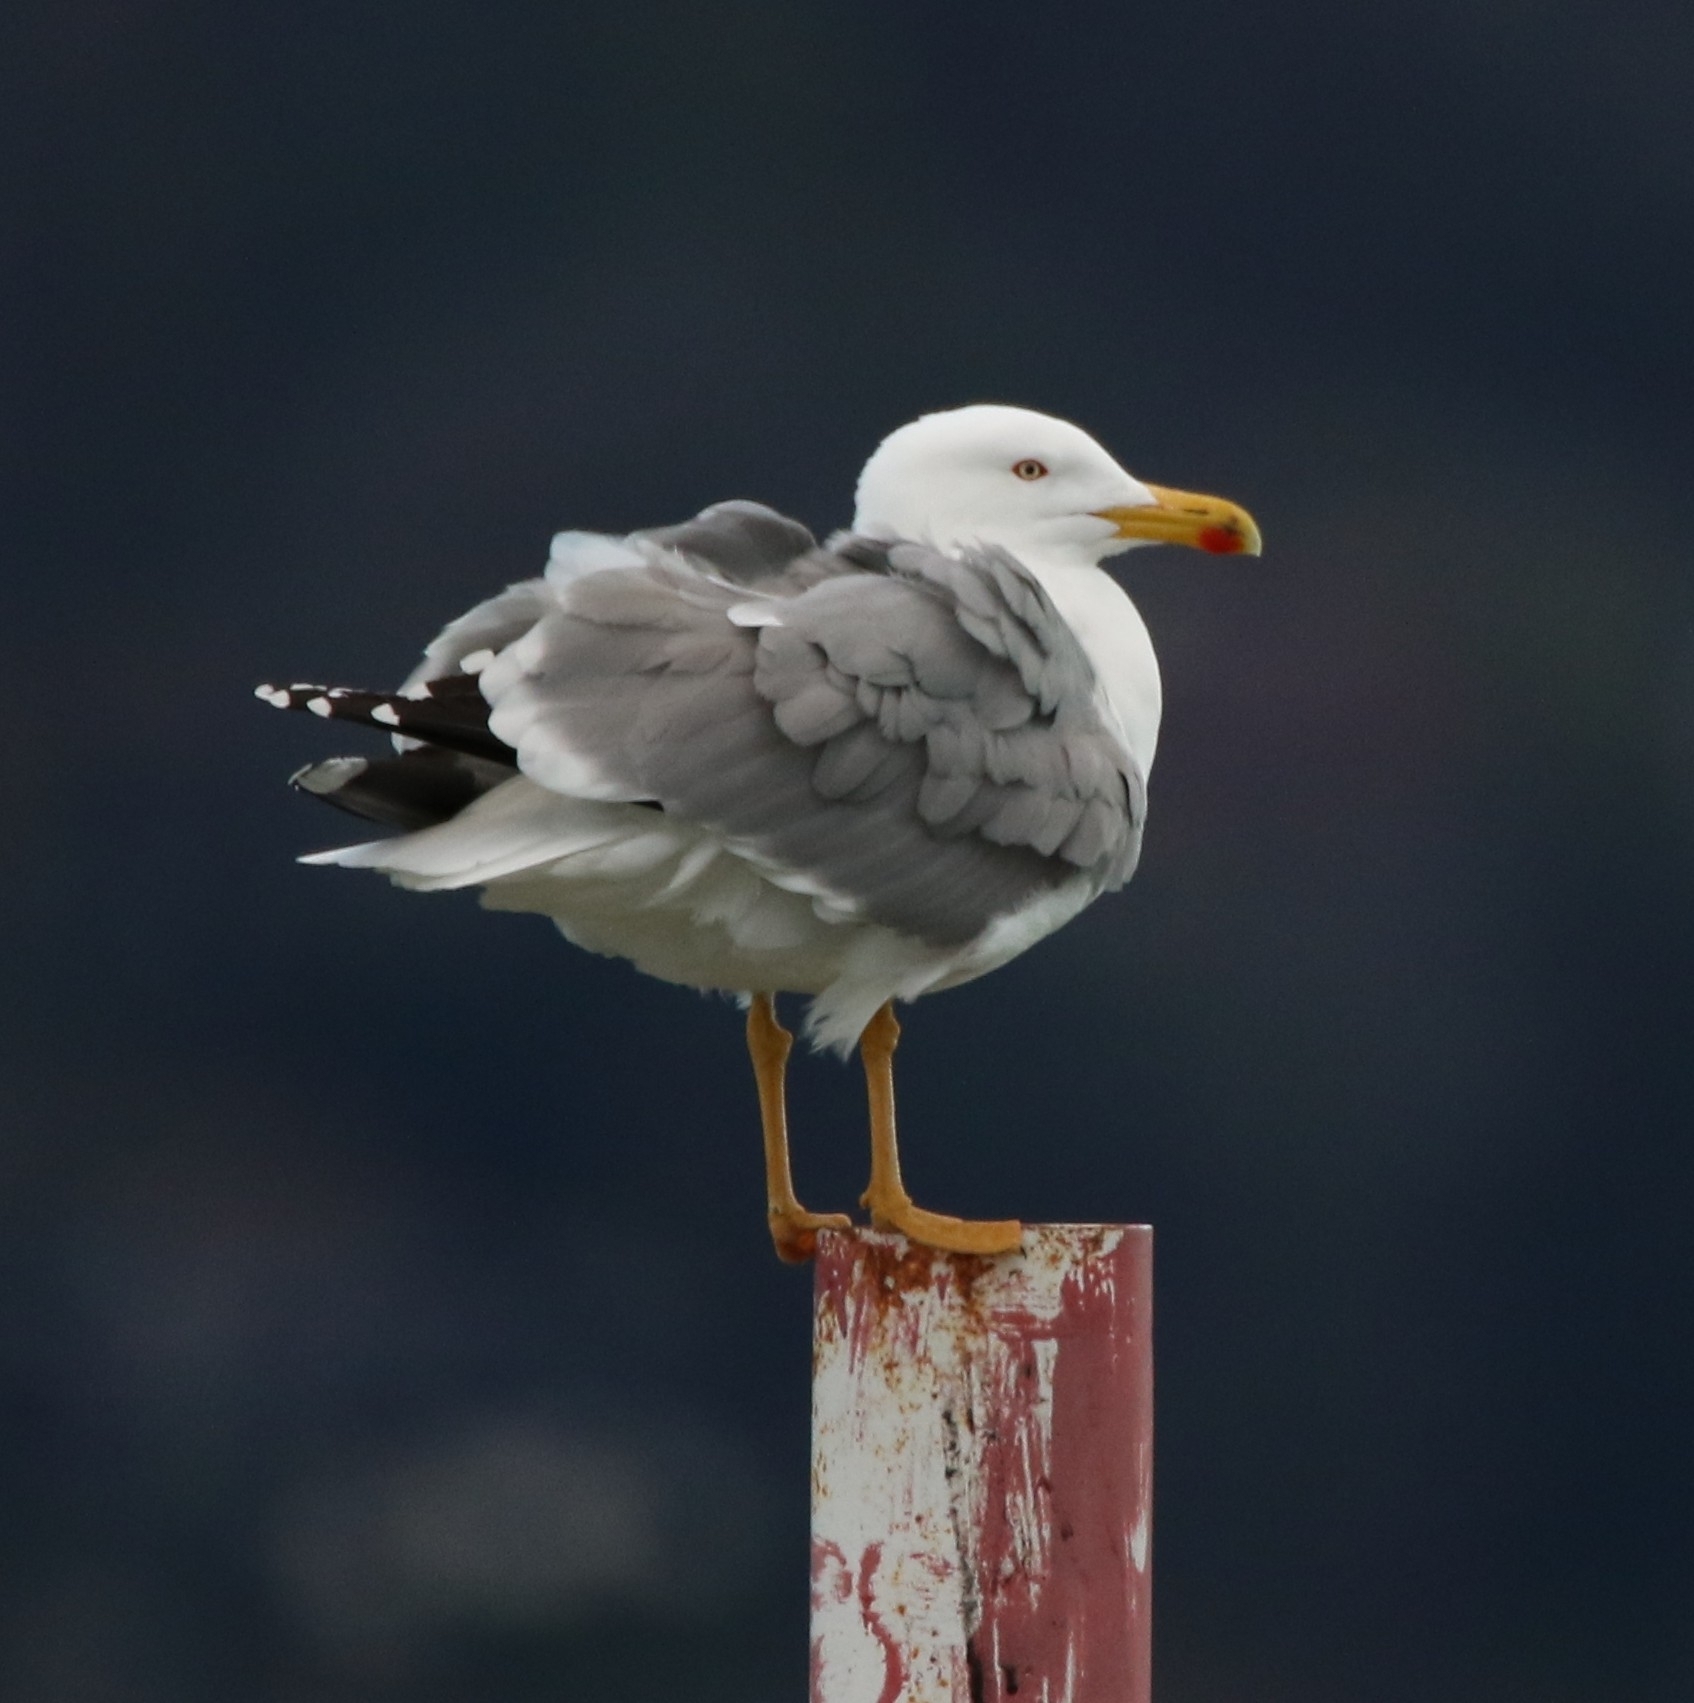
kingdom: Animalia
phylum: Chordata
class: Aves
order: Charadriiformes
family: Laridae
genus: Larus
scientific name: Larus michahellis
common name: Yellow-legged gull
